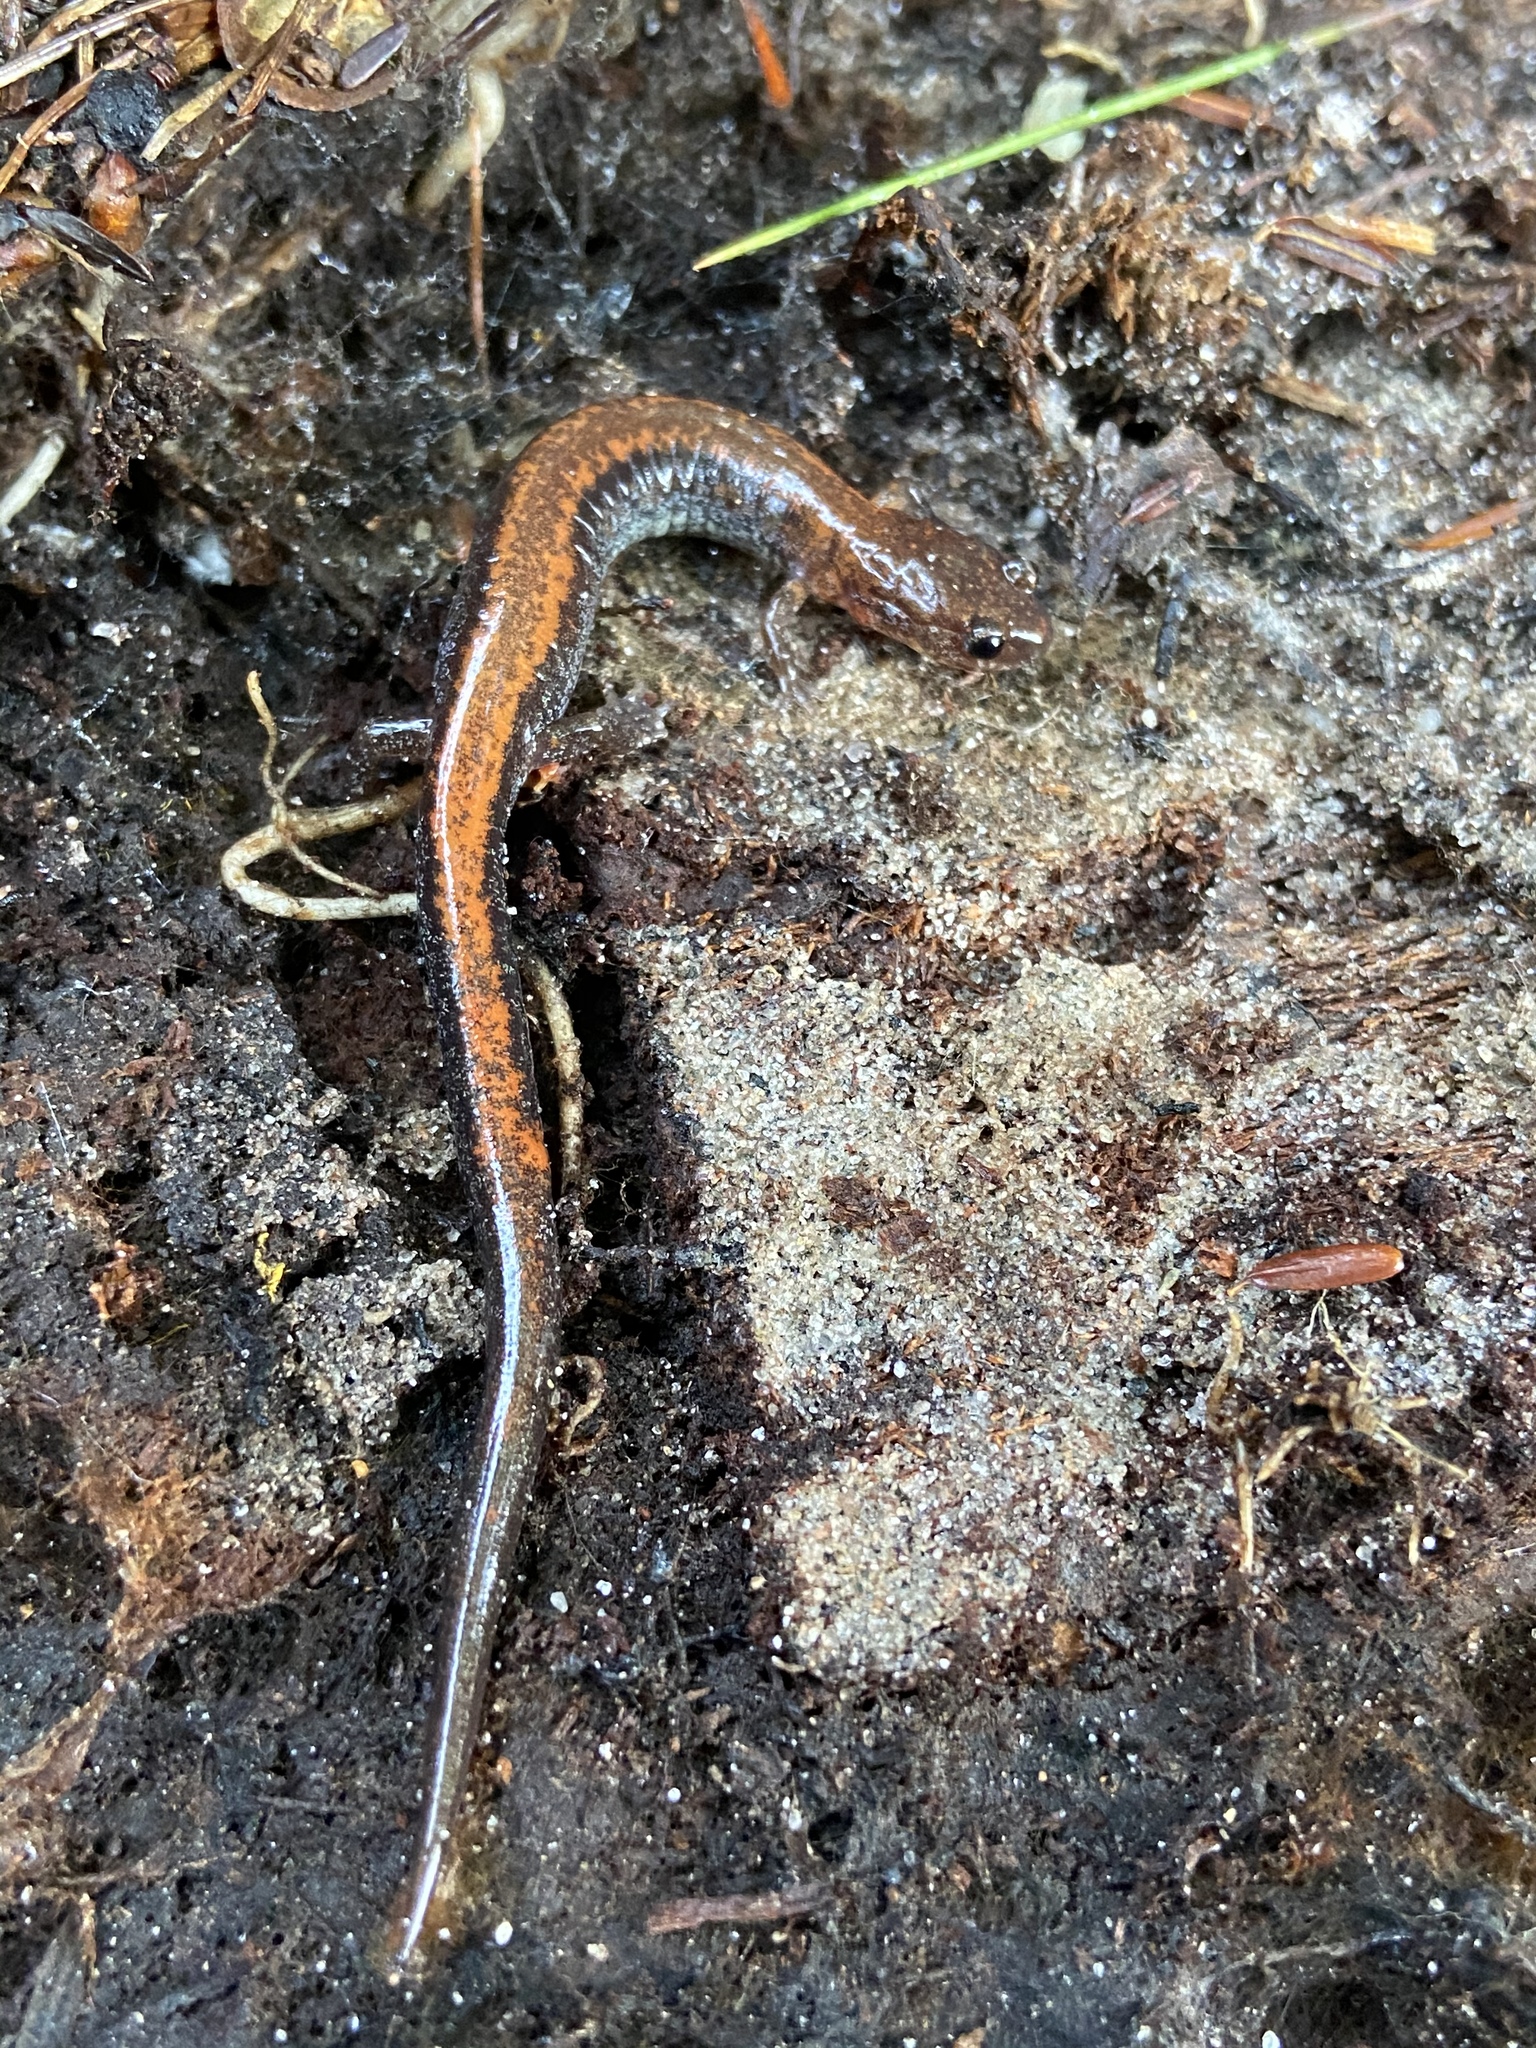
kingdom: Animalia
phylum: Chordata
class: Amphibia
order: Caudata
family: Plethodontidae
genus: Plethodon
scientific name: Plethodon cinereus
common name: Redback salamander
